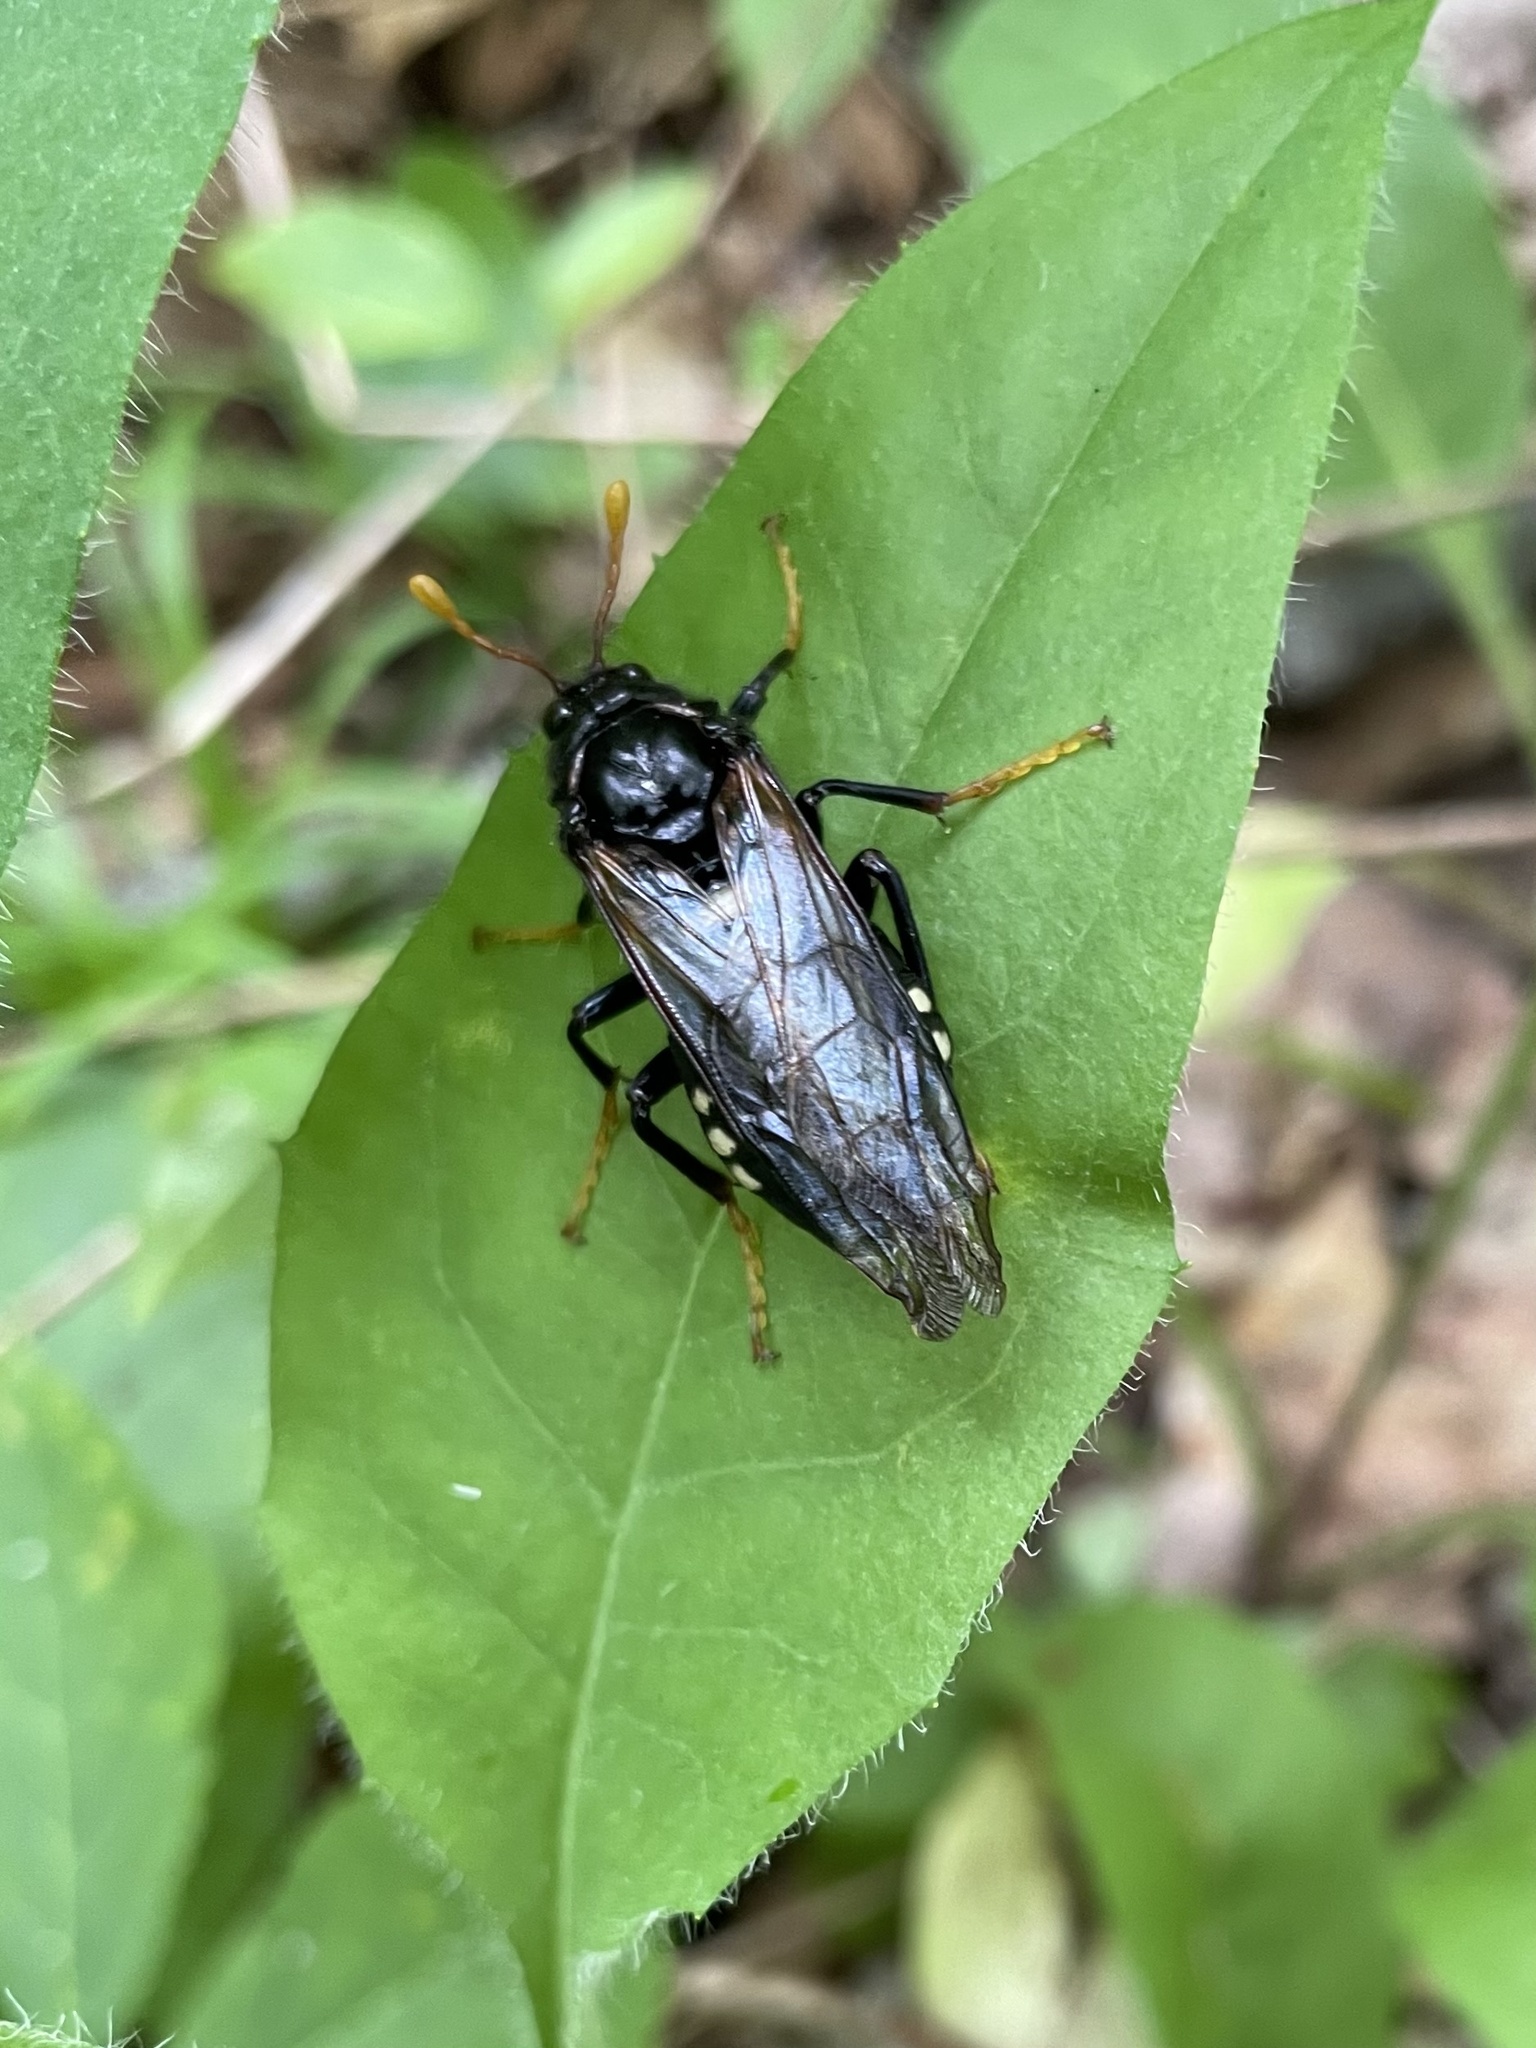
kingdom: Animalia
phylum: Arthropoda
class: Insecta
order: Hymenoptera
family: Cimbicidae
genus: Cimbex
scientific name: Cimbex americana
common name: Elm sawfly
